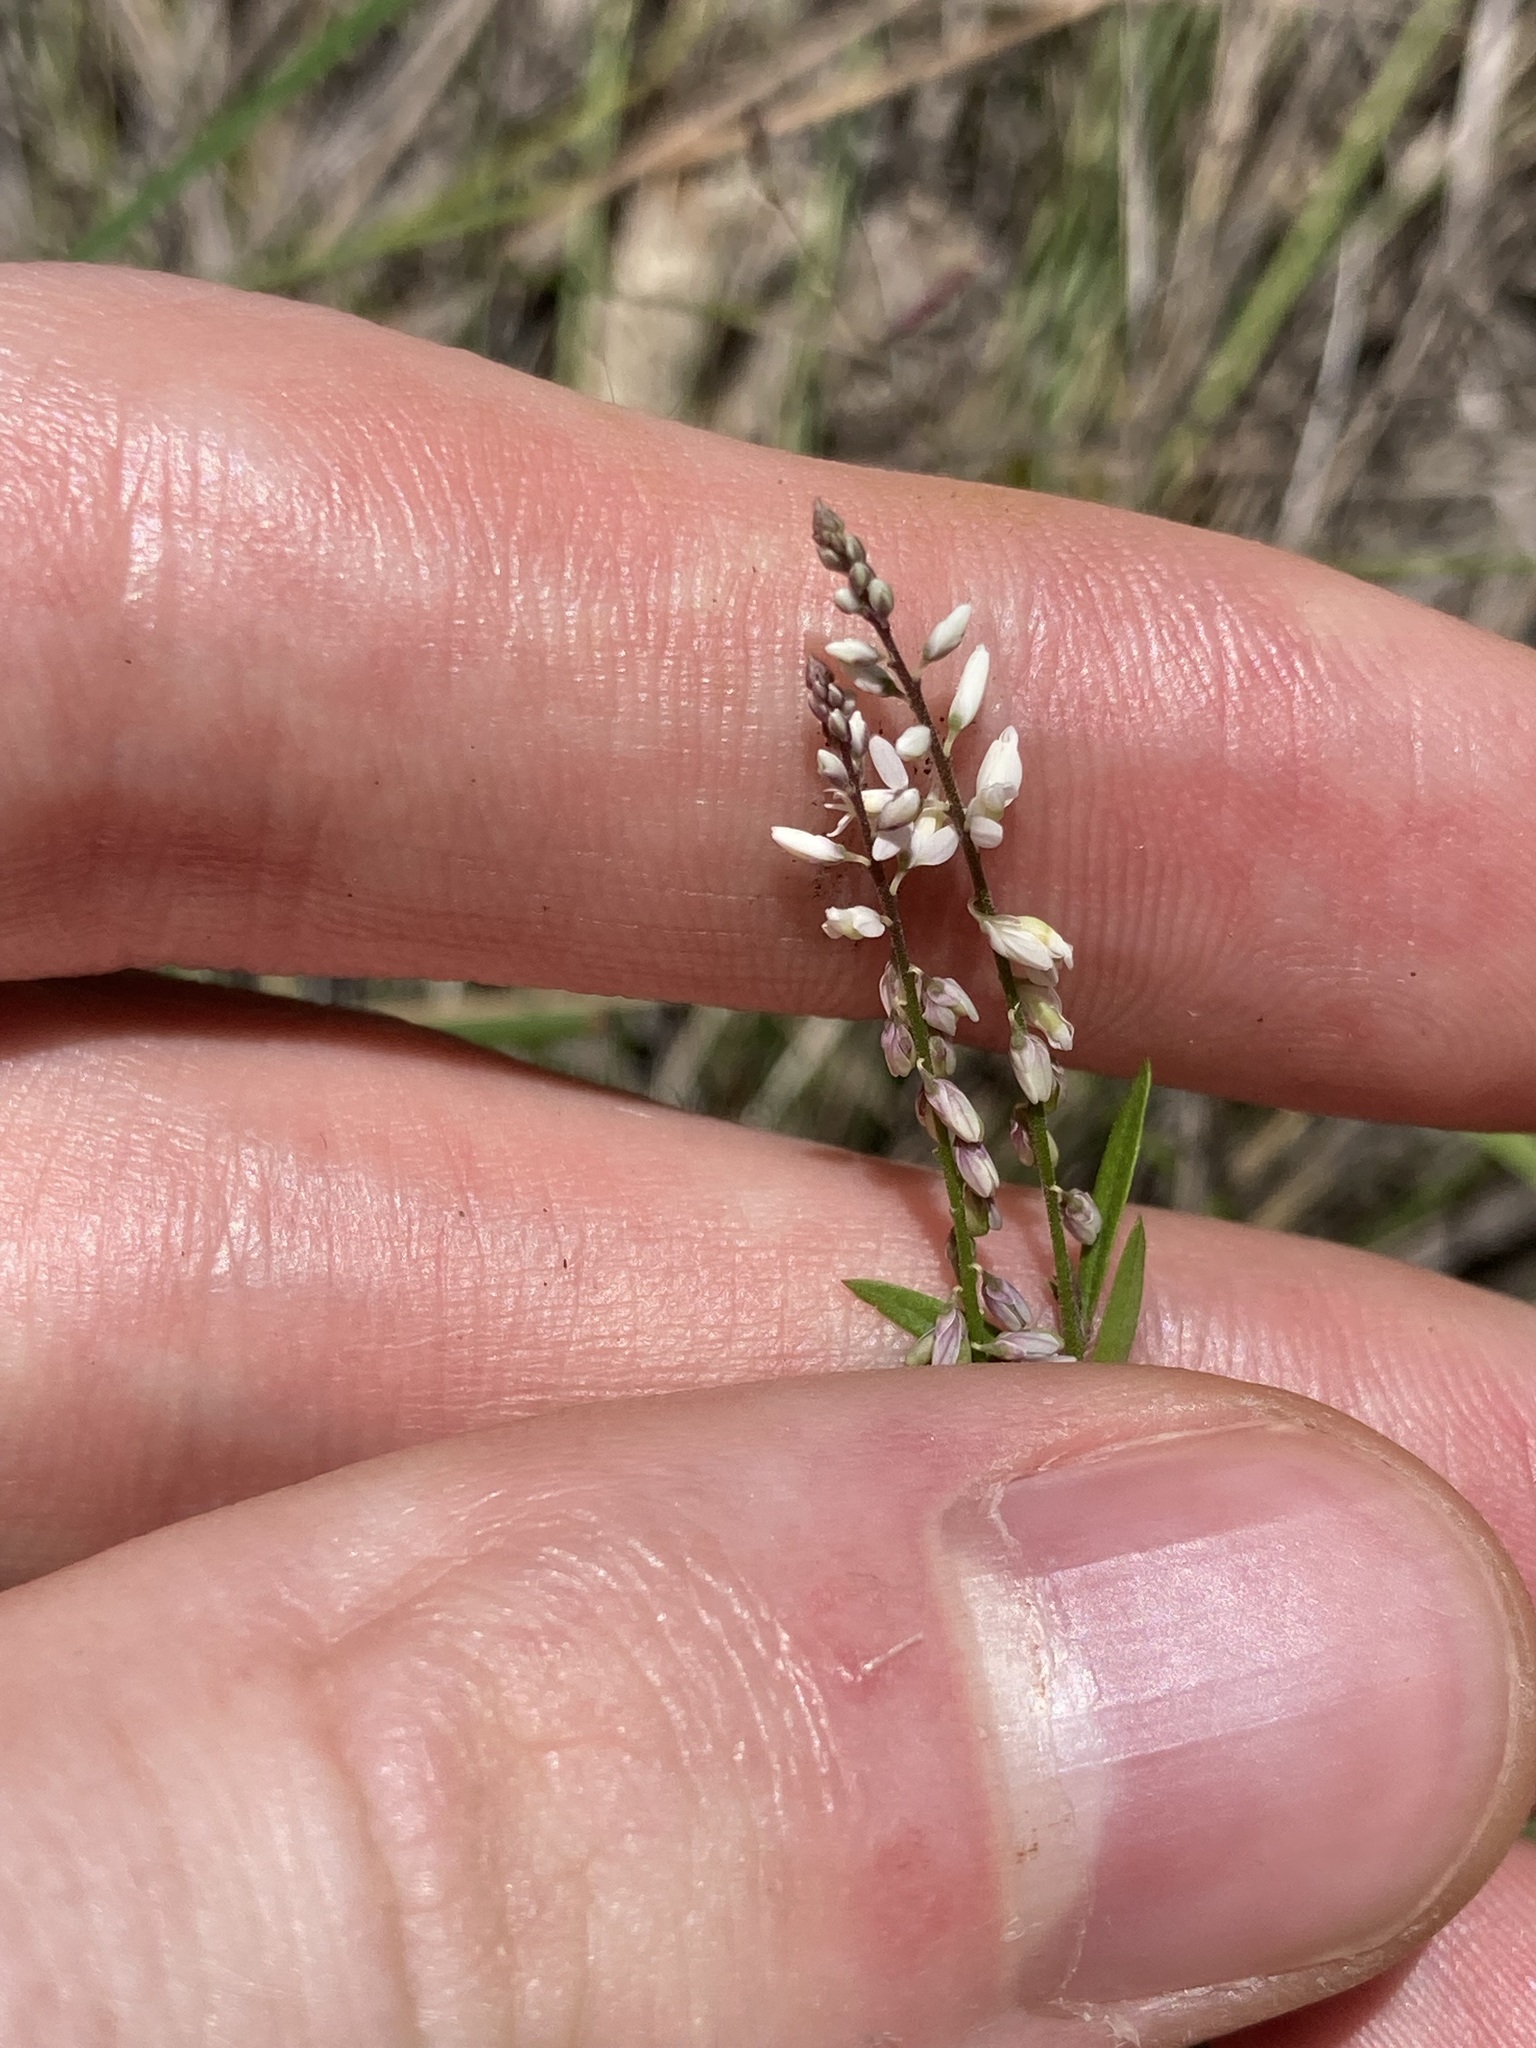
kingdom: Plantae
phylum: Tracheophyta
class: Magnoliopsida
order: Fabales
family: Polygalaceae
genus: Polygala
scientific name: Polygala paniculata
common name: Orosne
